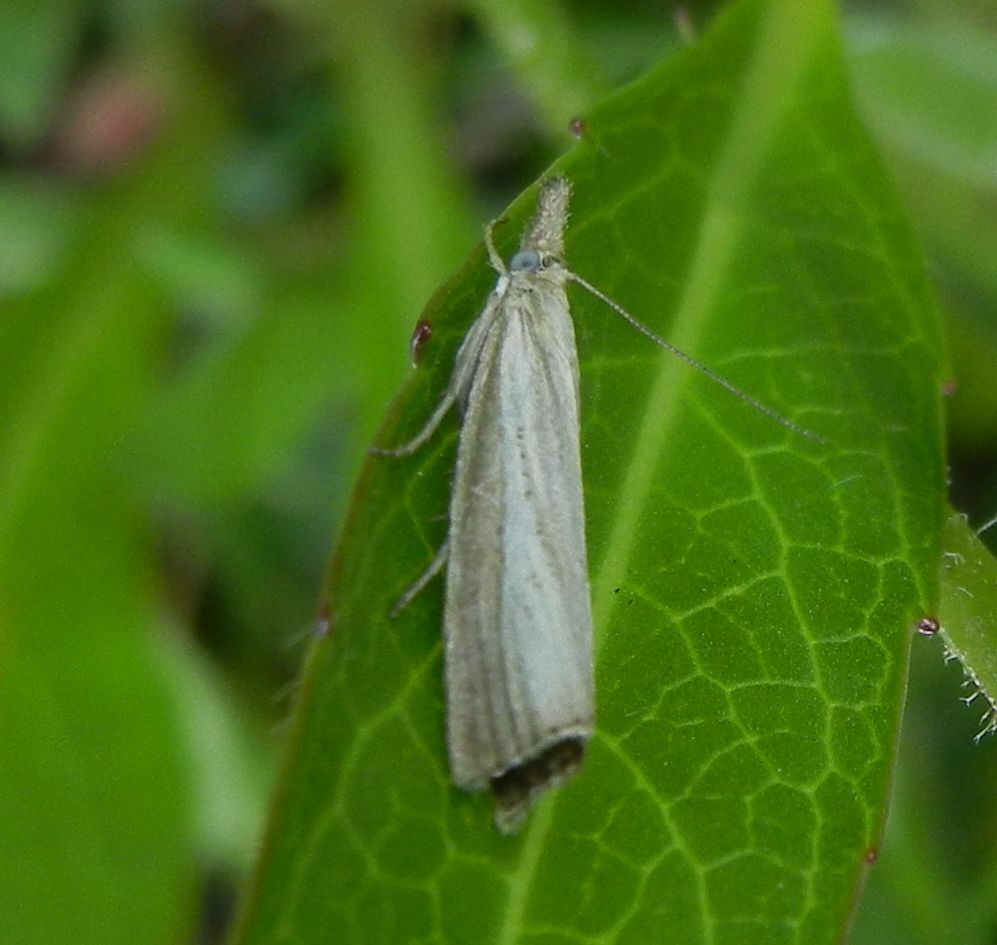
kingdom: Animalia
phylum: Arthropoda
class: Insecta
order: Lepidoptera
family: Crambidae
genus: Agriphila
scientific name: Agriphila straminella
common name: Straw grass-veneer
